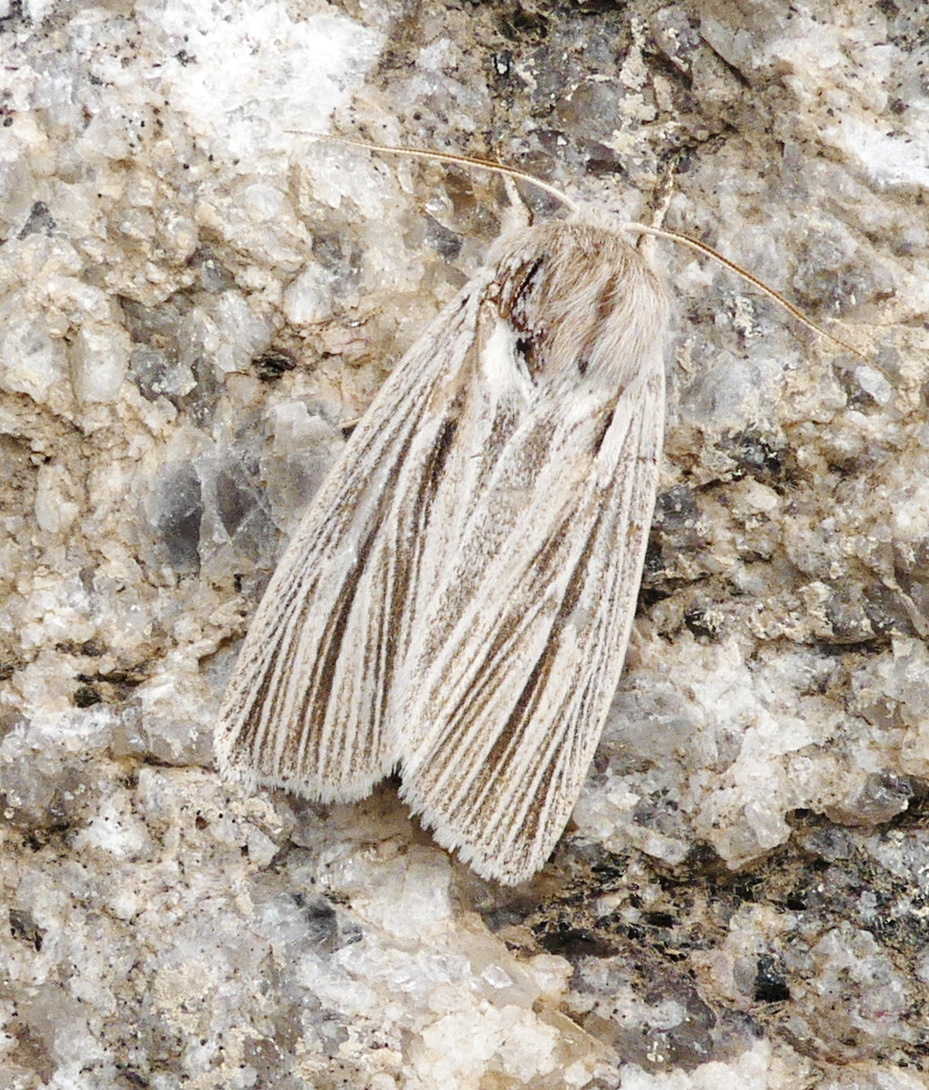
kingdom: Animalia
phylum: Arthropoda
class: Insecta
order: Lepidoptera
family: Noctuidae
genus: Acronicta
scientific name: Acronicta insularis
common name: Henry's marsh moth
